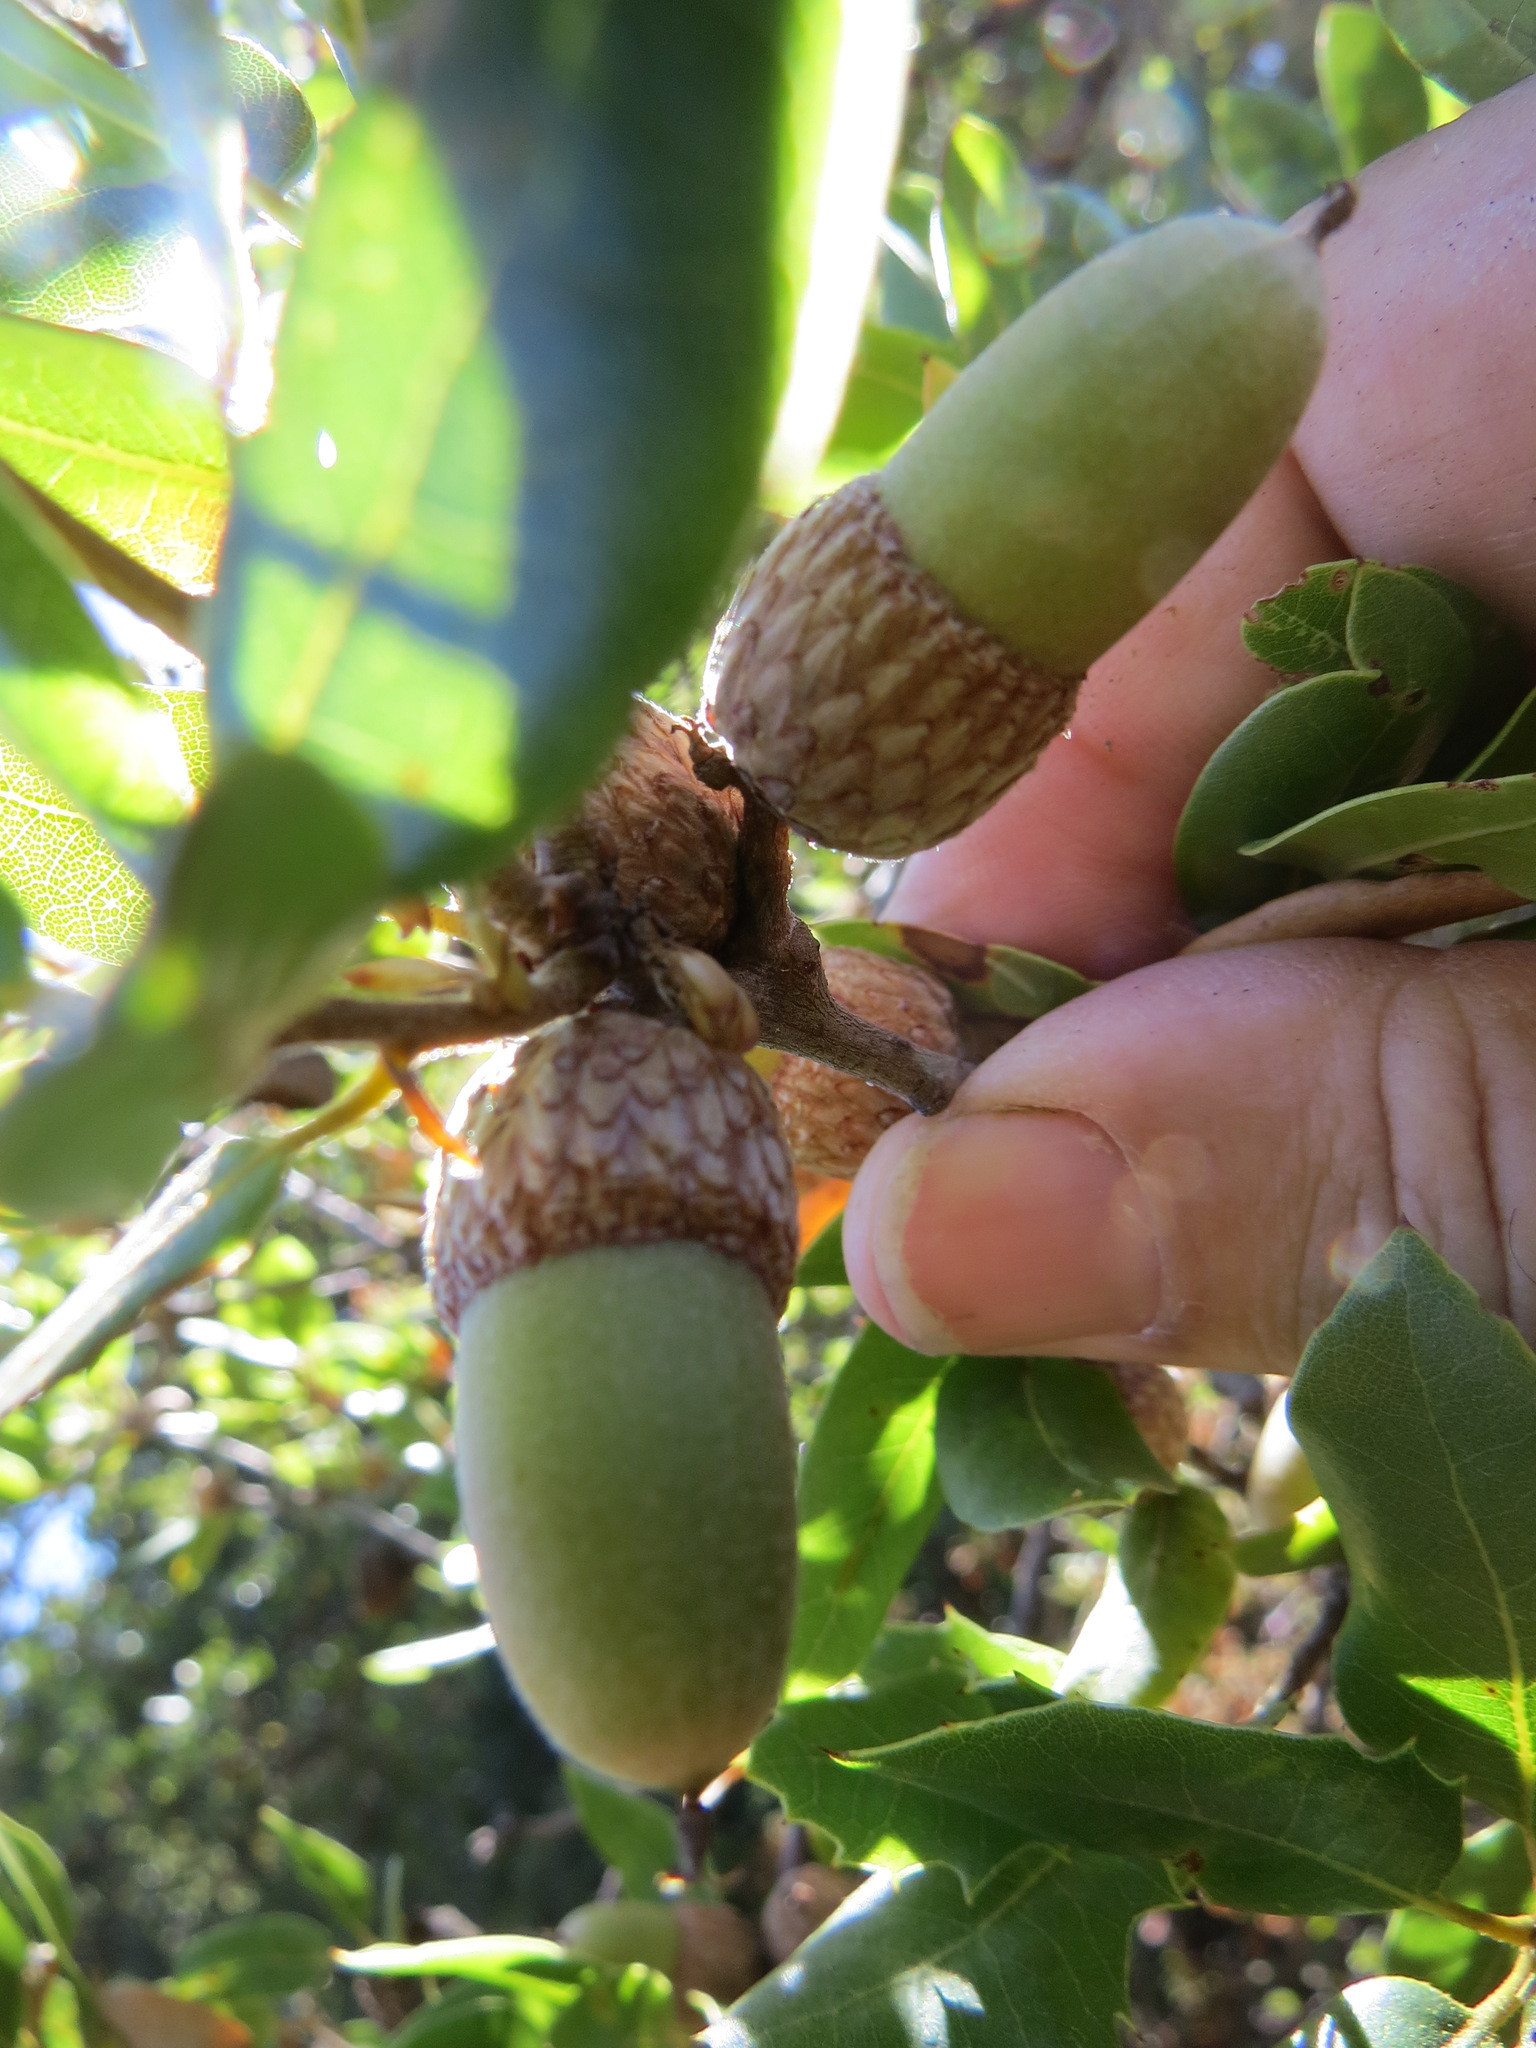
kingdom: Plantae
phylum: Tracheophyta
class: Magnoliopsida
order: Fagales
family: Fagaceae
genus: Quercus
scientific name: Quercus parvula
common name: Santa cruz island oak
